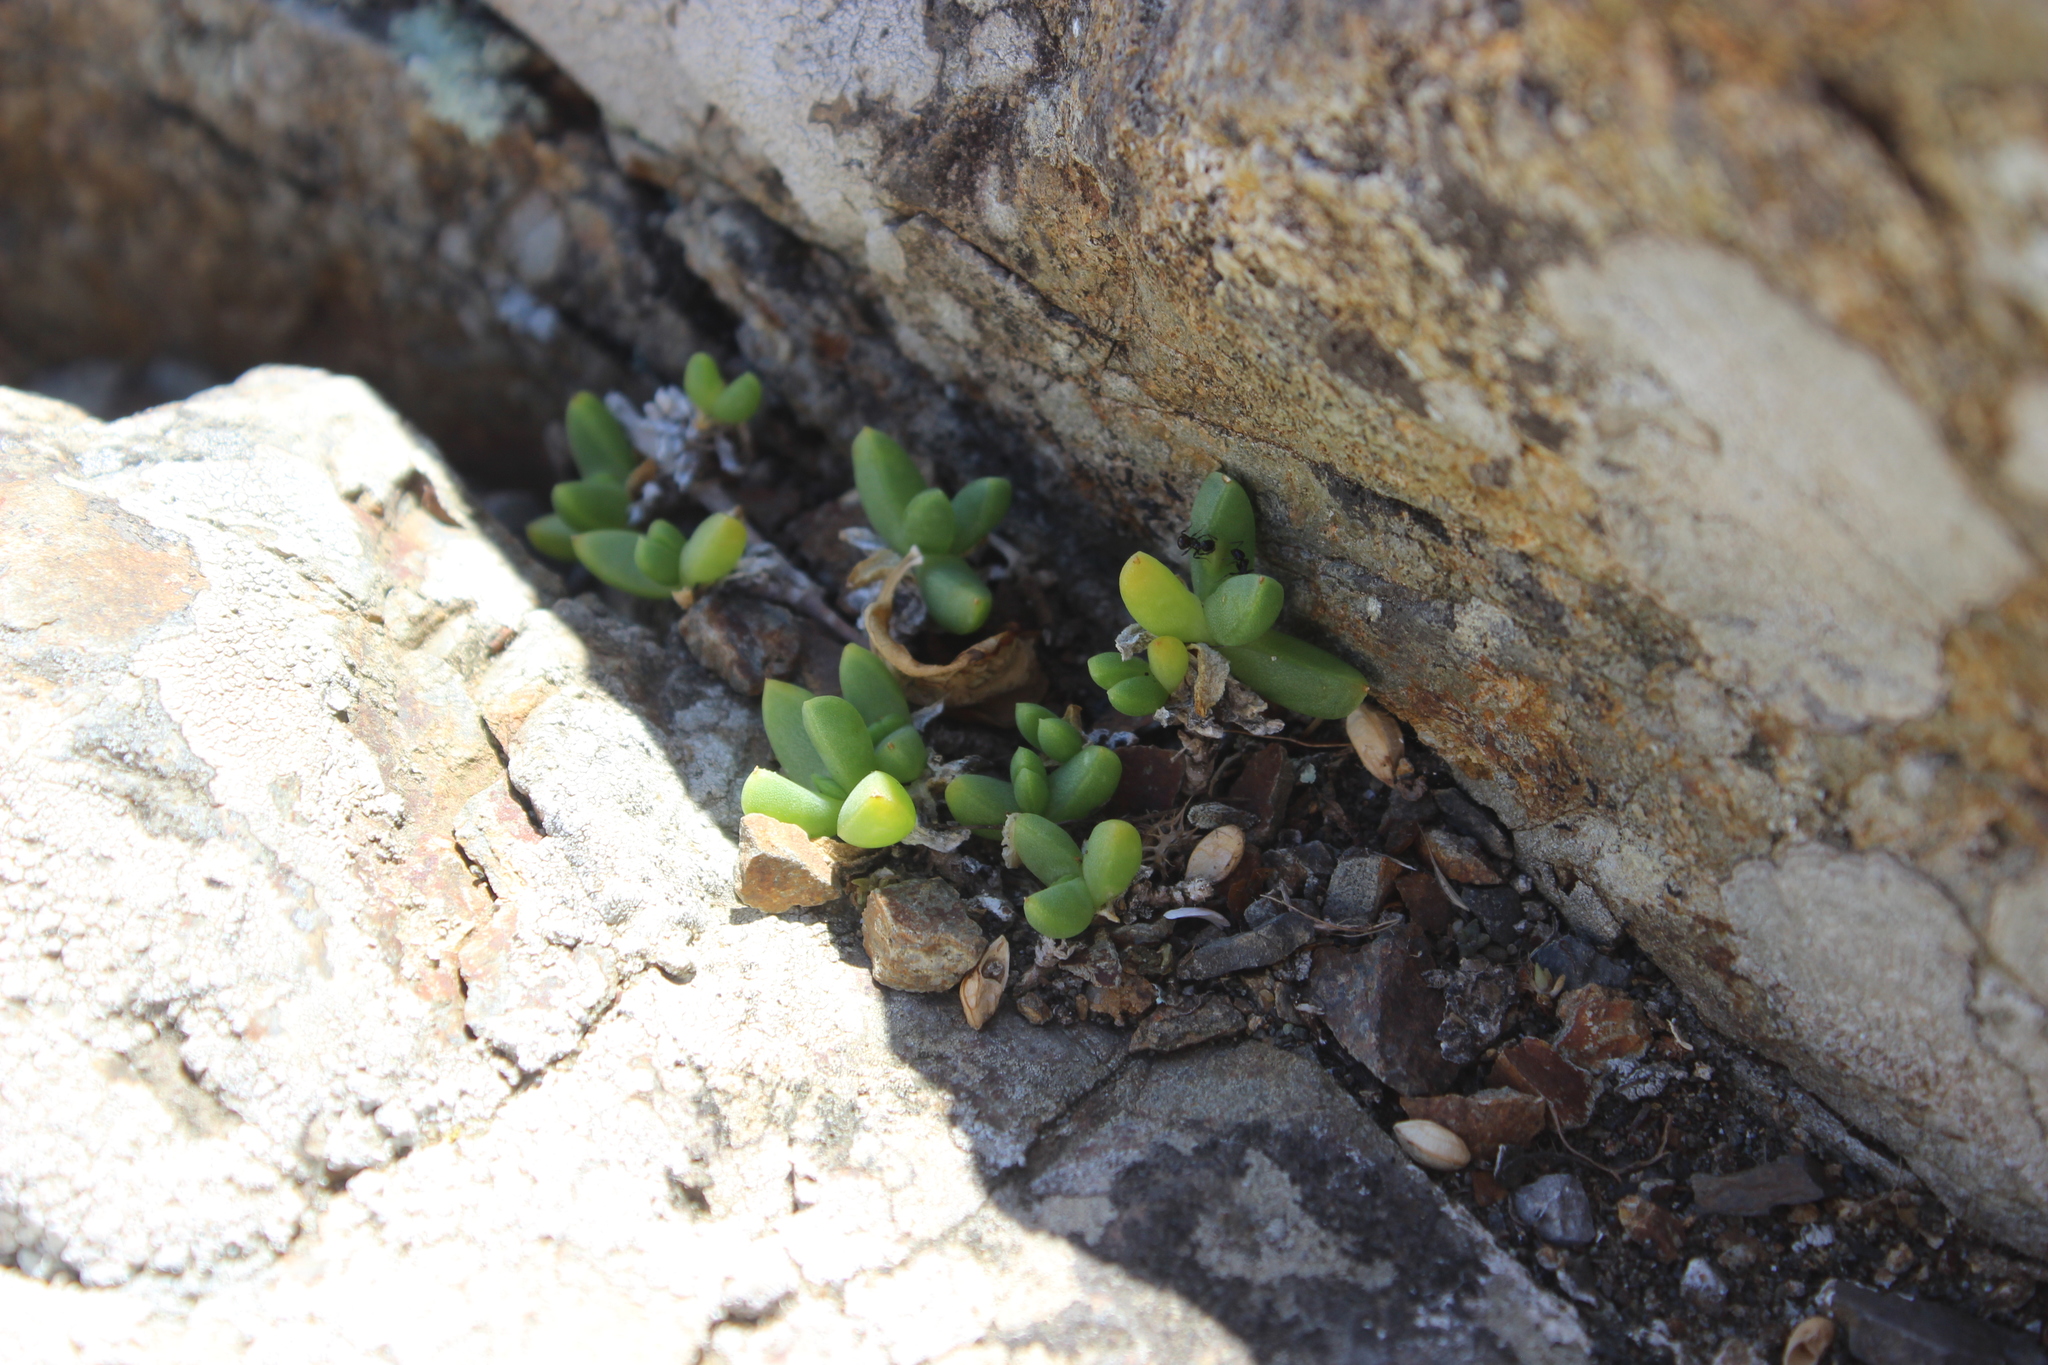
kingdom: Plantae
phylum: Tracheophyta
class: Magnoliopsida
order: Caryophyllales
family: Aizoaceae
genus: Disphyma
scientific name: Disphyma australe
